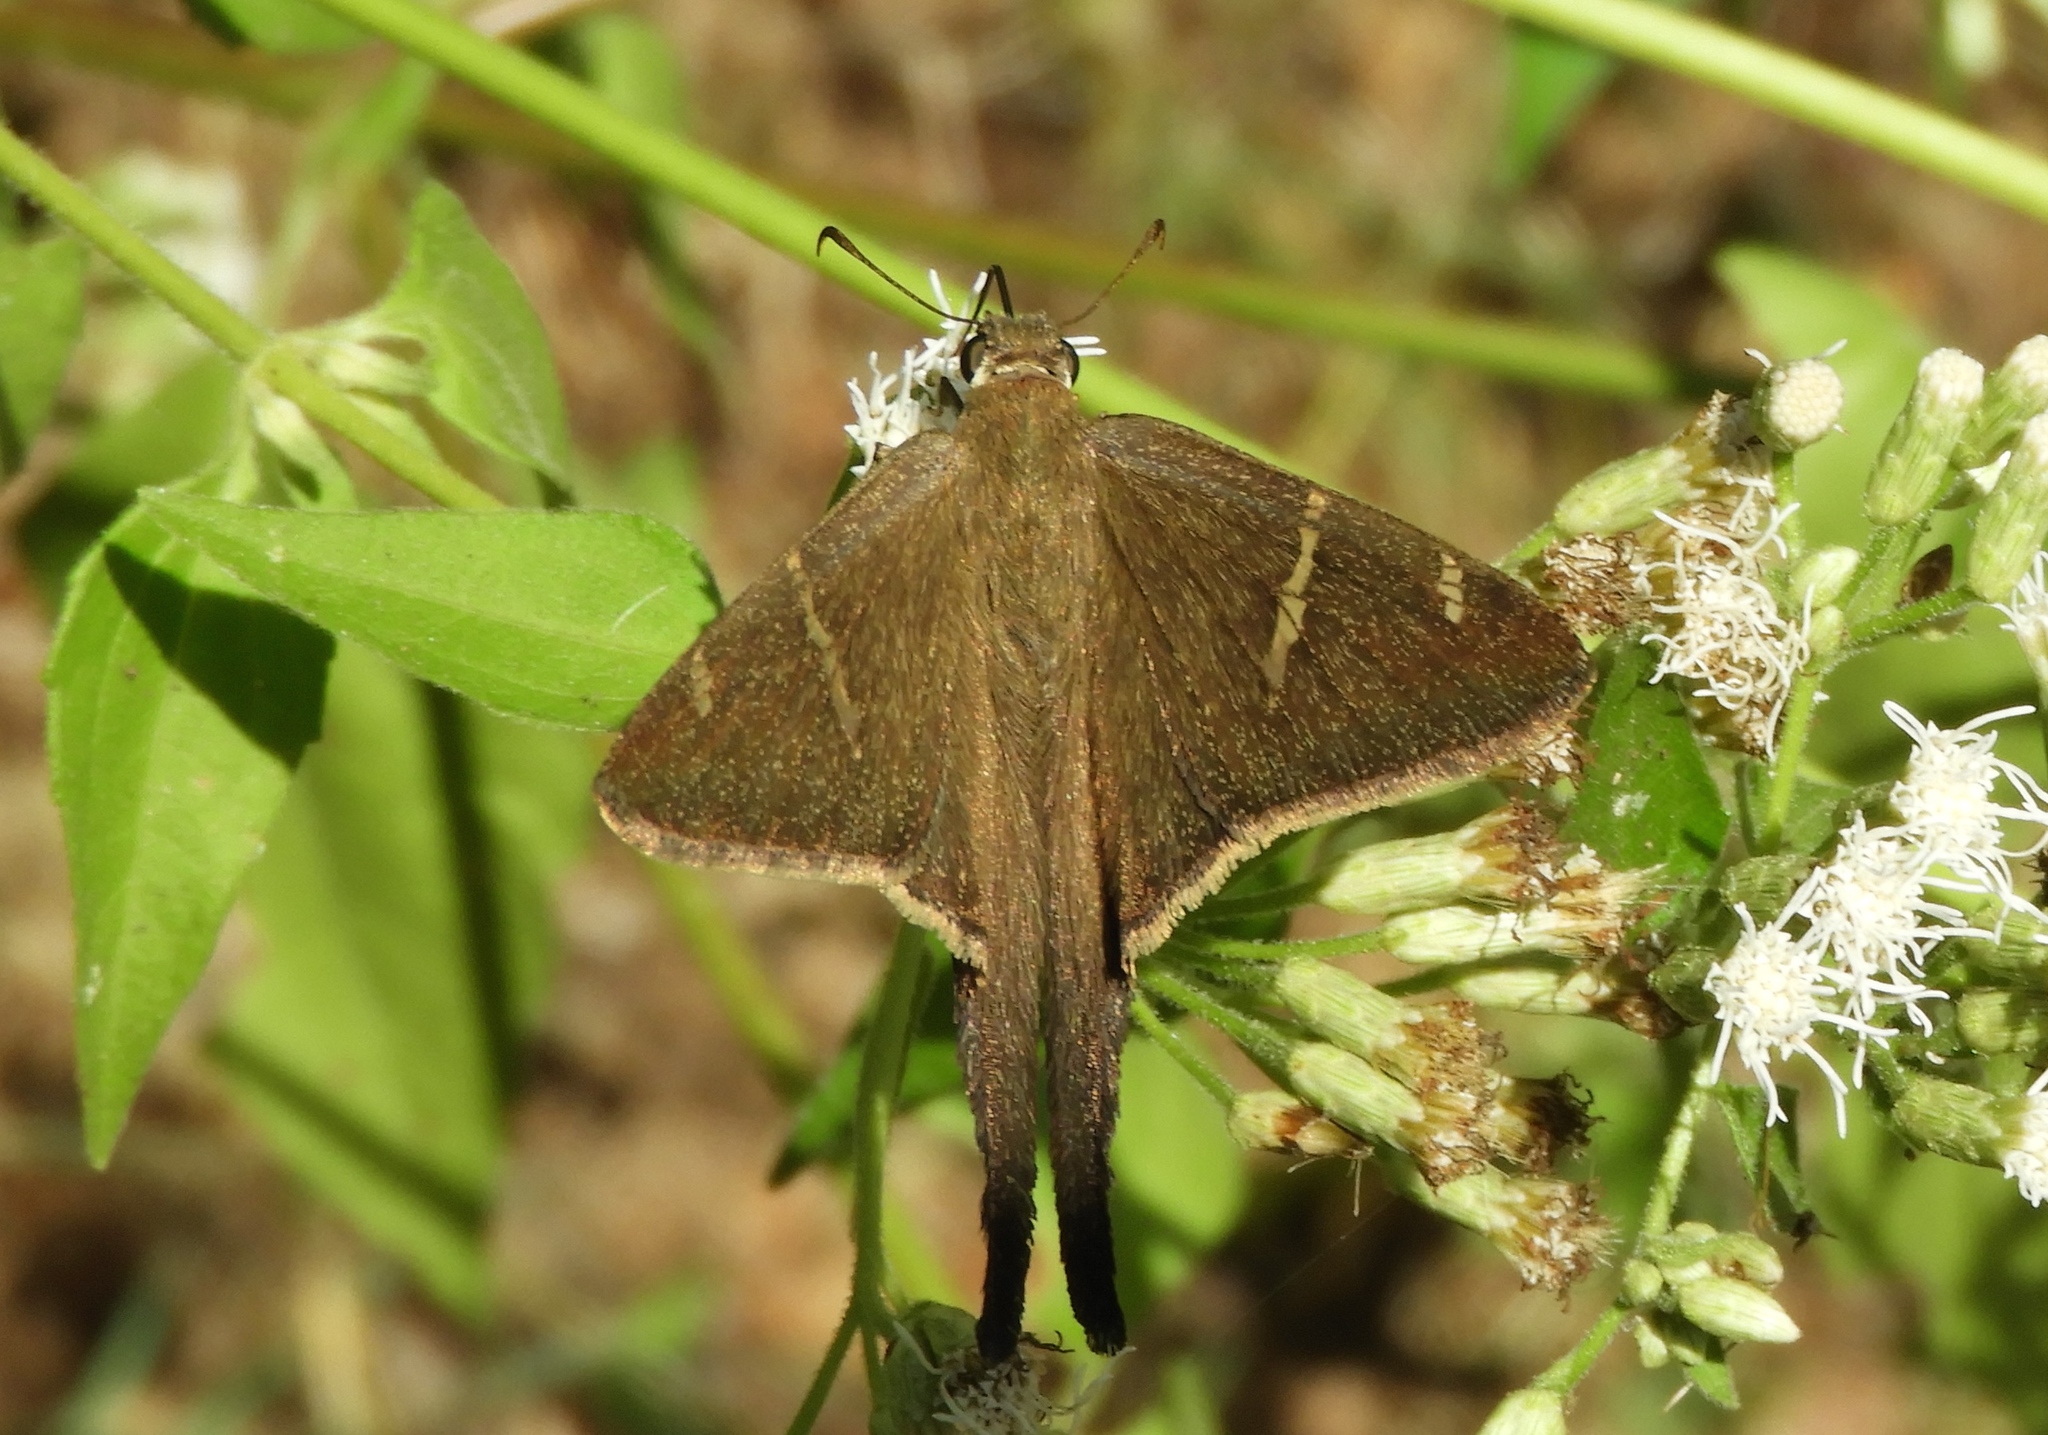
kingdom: Animalia
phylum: Arthropoda
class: Insecta
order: Lepidoptera
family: Hesperiidae
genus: Urbanus
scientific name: Urbanus procne
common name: Brown longtail
